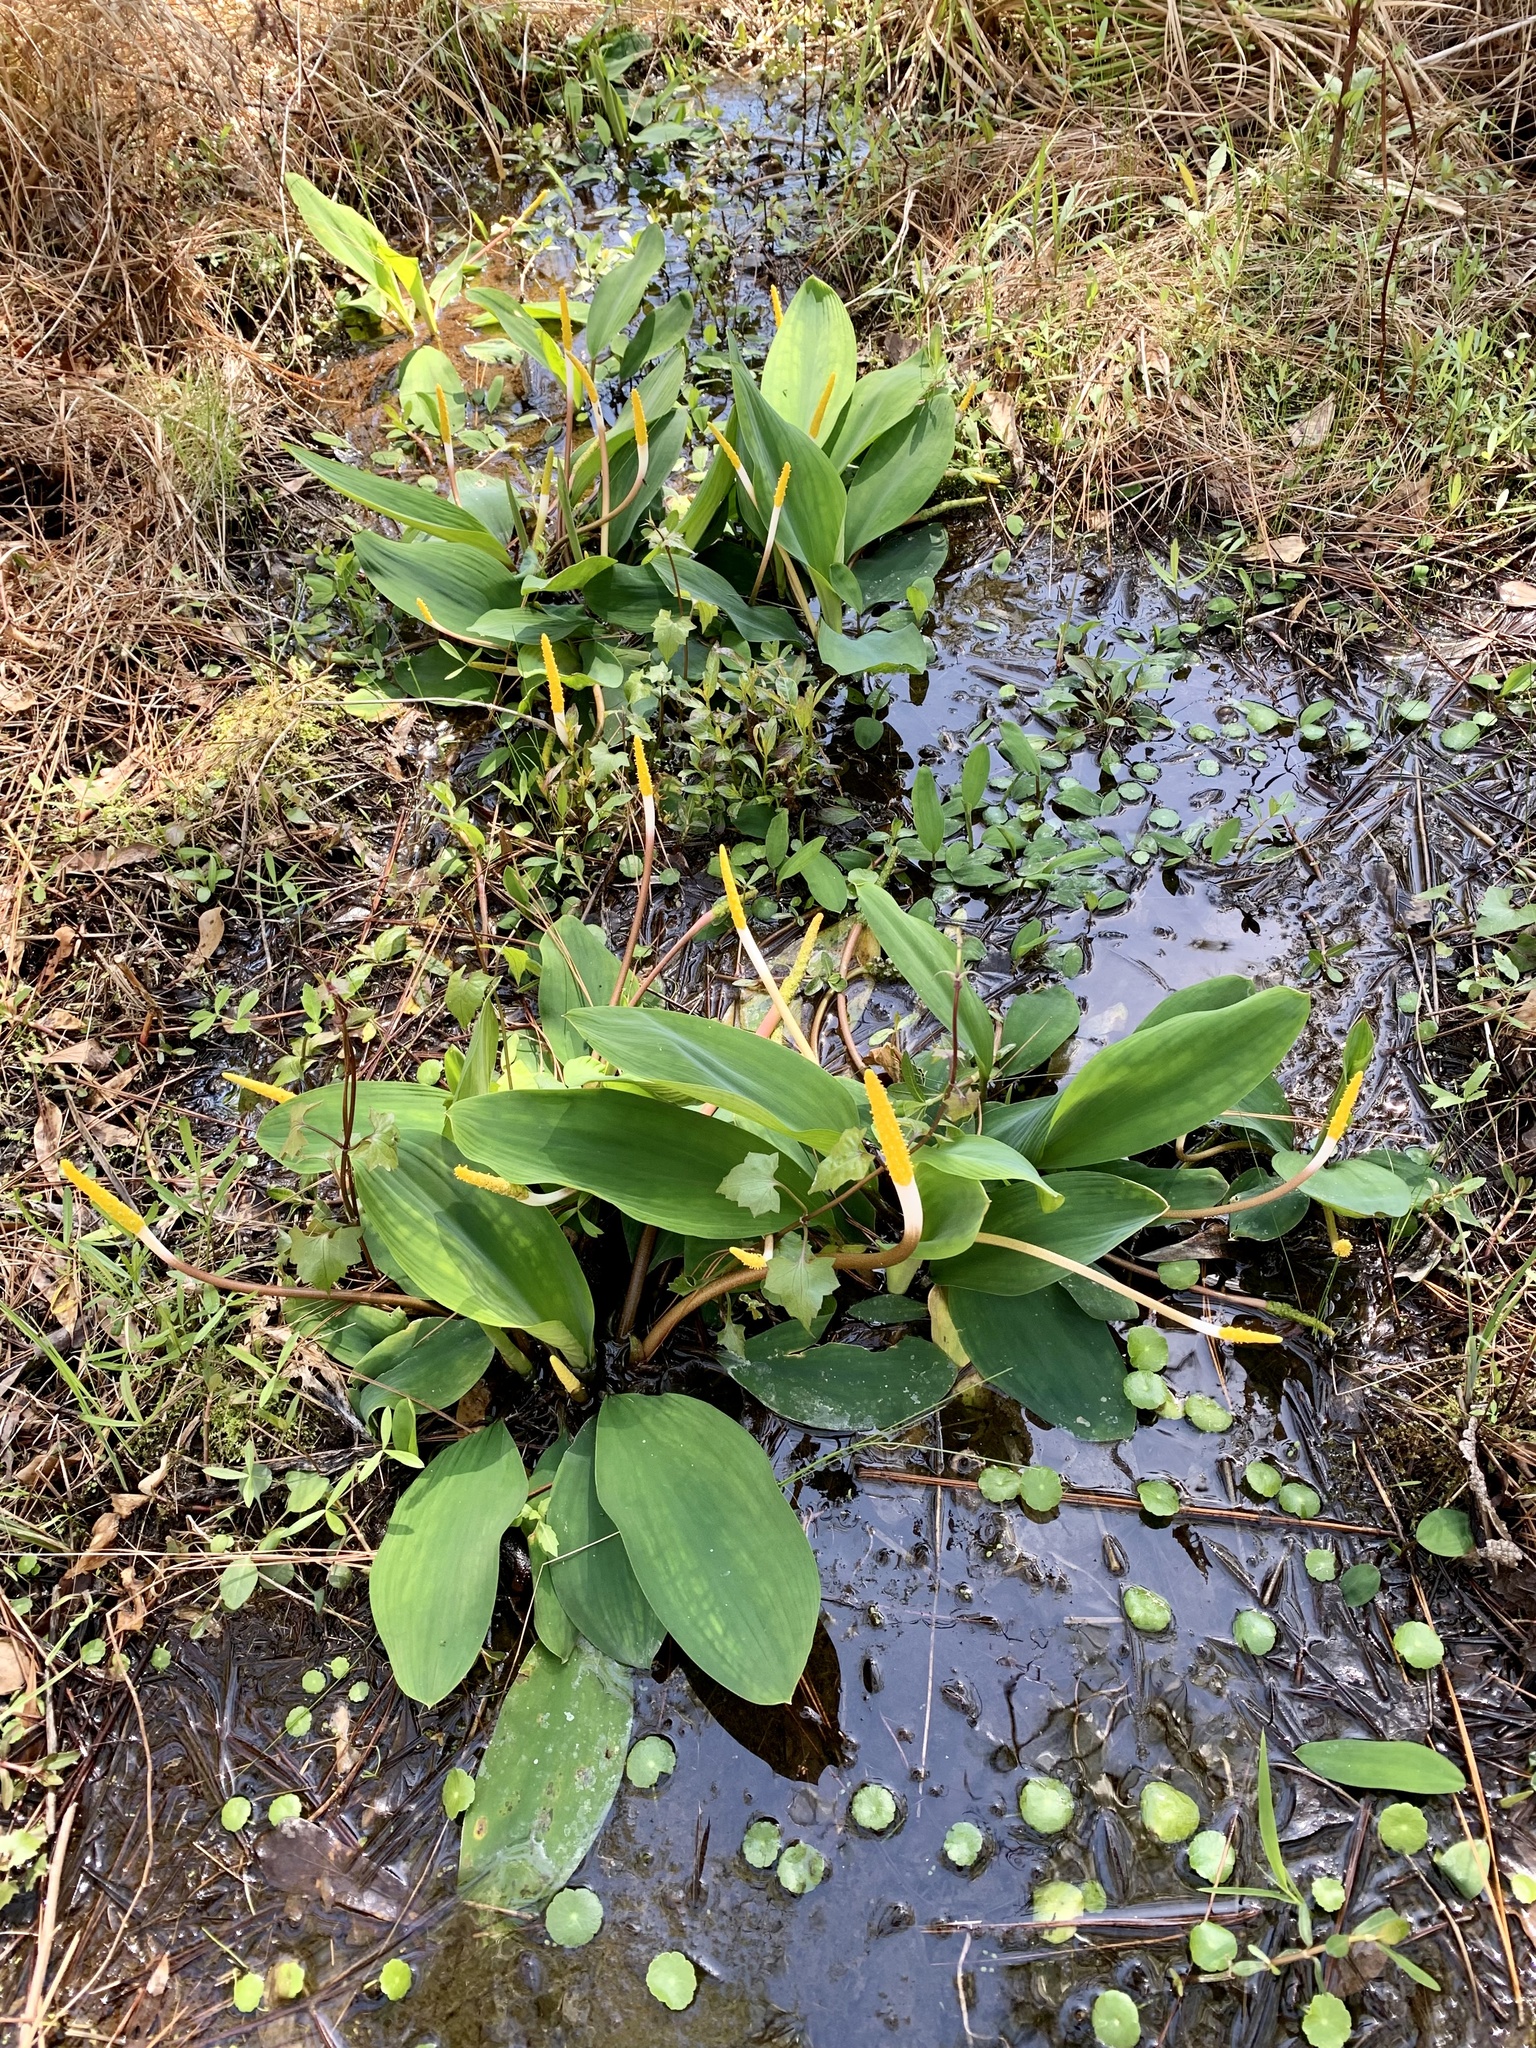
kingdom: Plantae
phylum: Tracheophyta
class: Liliopsida
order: Alismatales
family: Araceae
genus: Orontium
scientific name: Orontium aquaticum
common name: Golden-club
